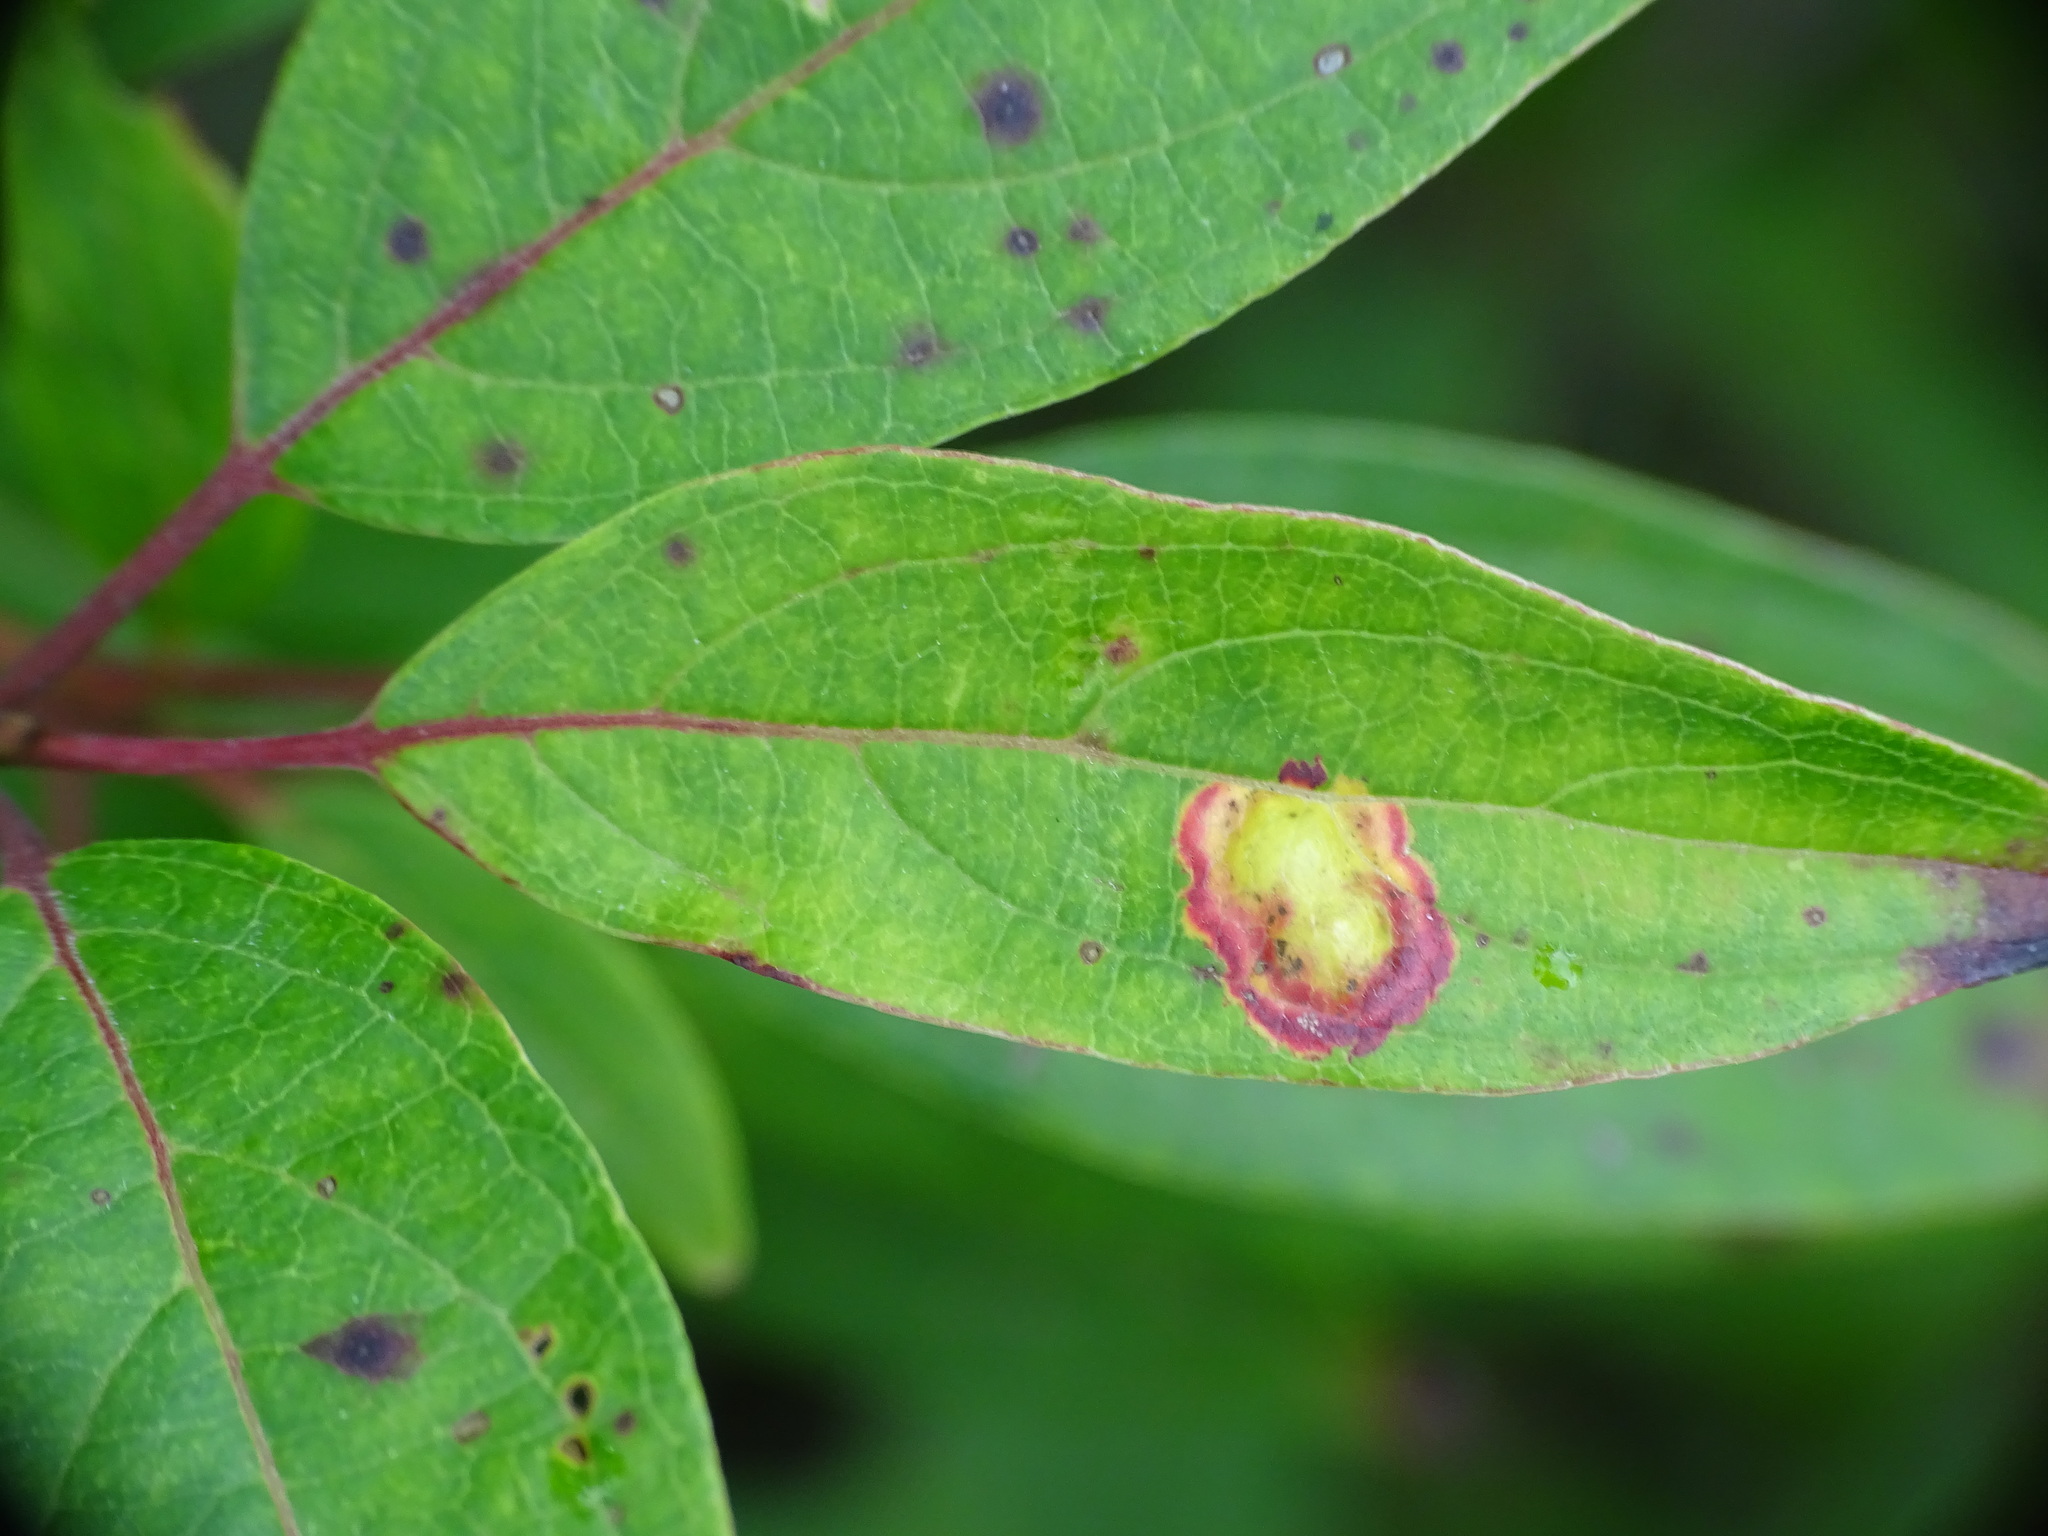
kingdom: Animalia
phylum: Arthropoda
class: Insecta
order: Diptera
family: Cecidomyiidae
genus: Parallelodiplosis
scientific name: Parallelodiplosis subtruncata
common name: Dogwood eyespot gall midge
